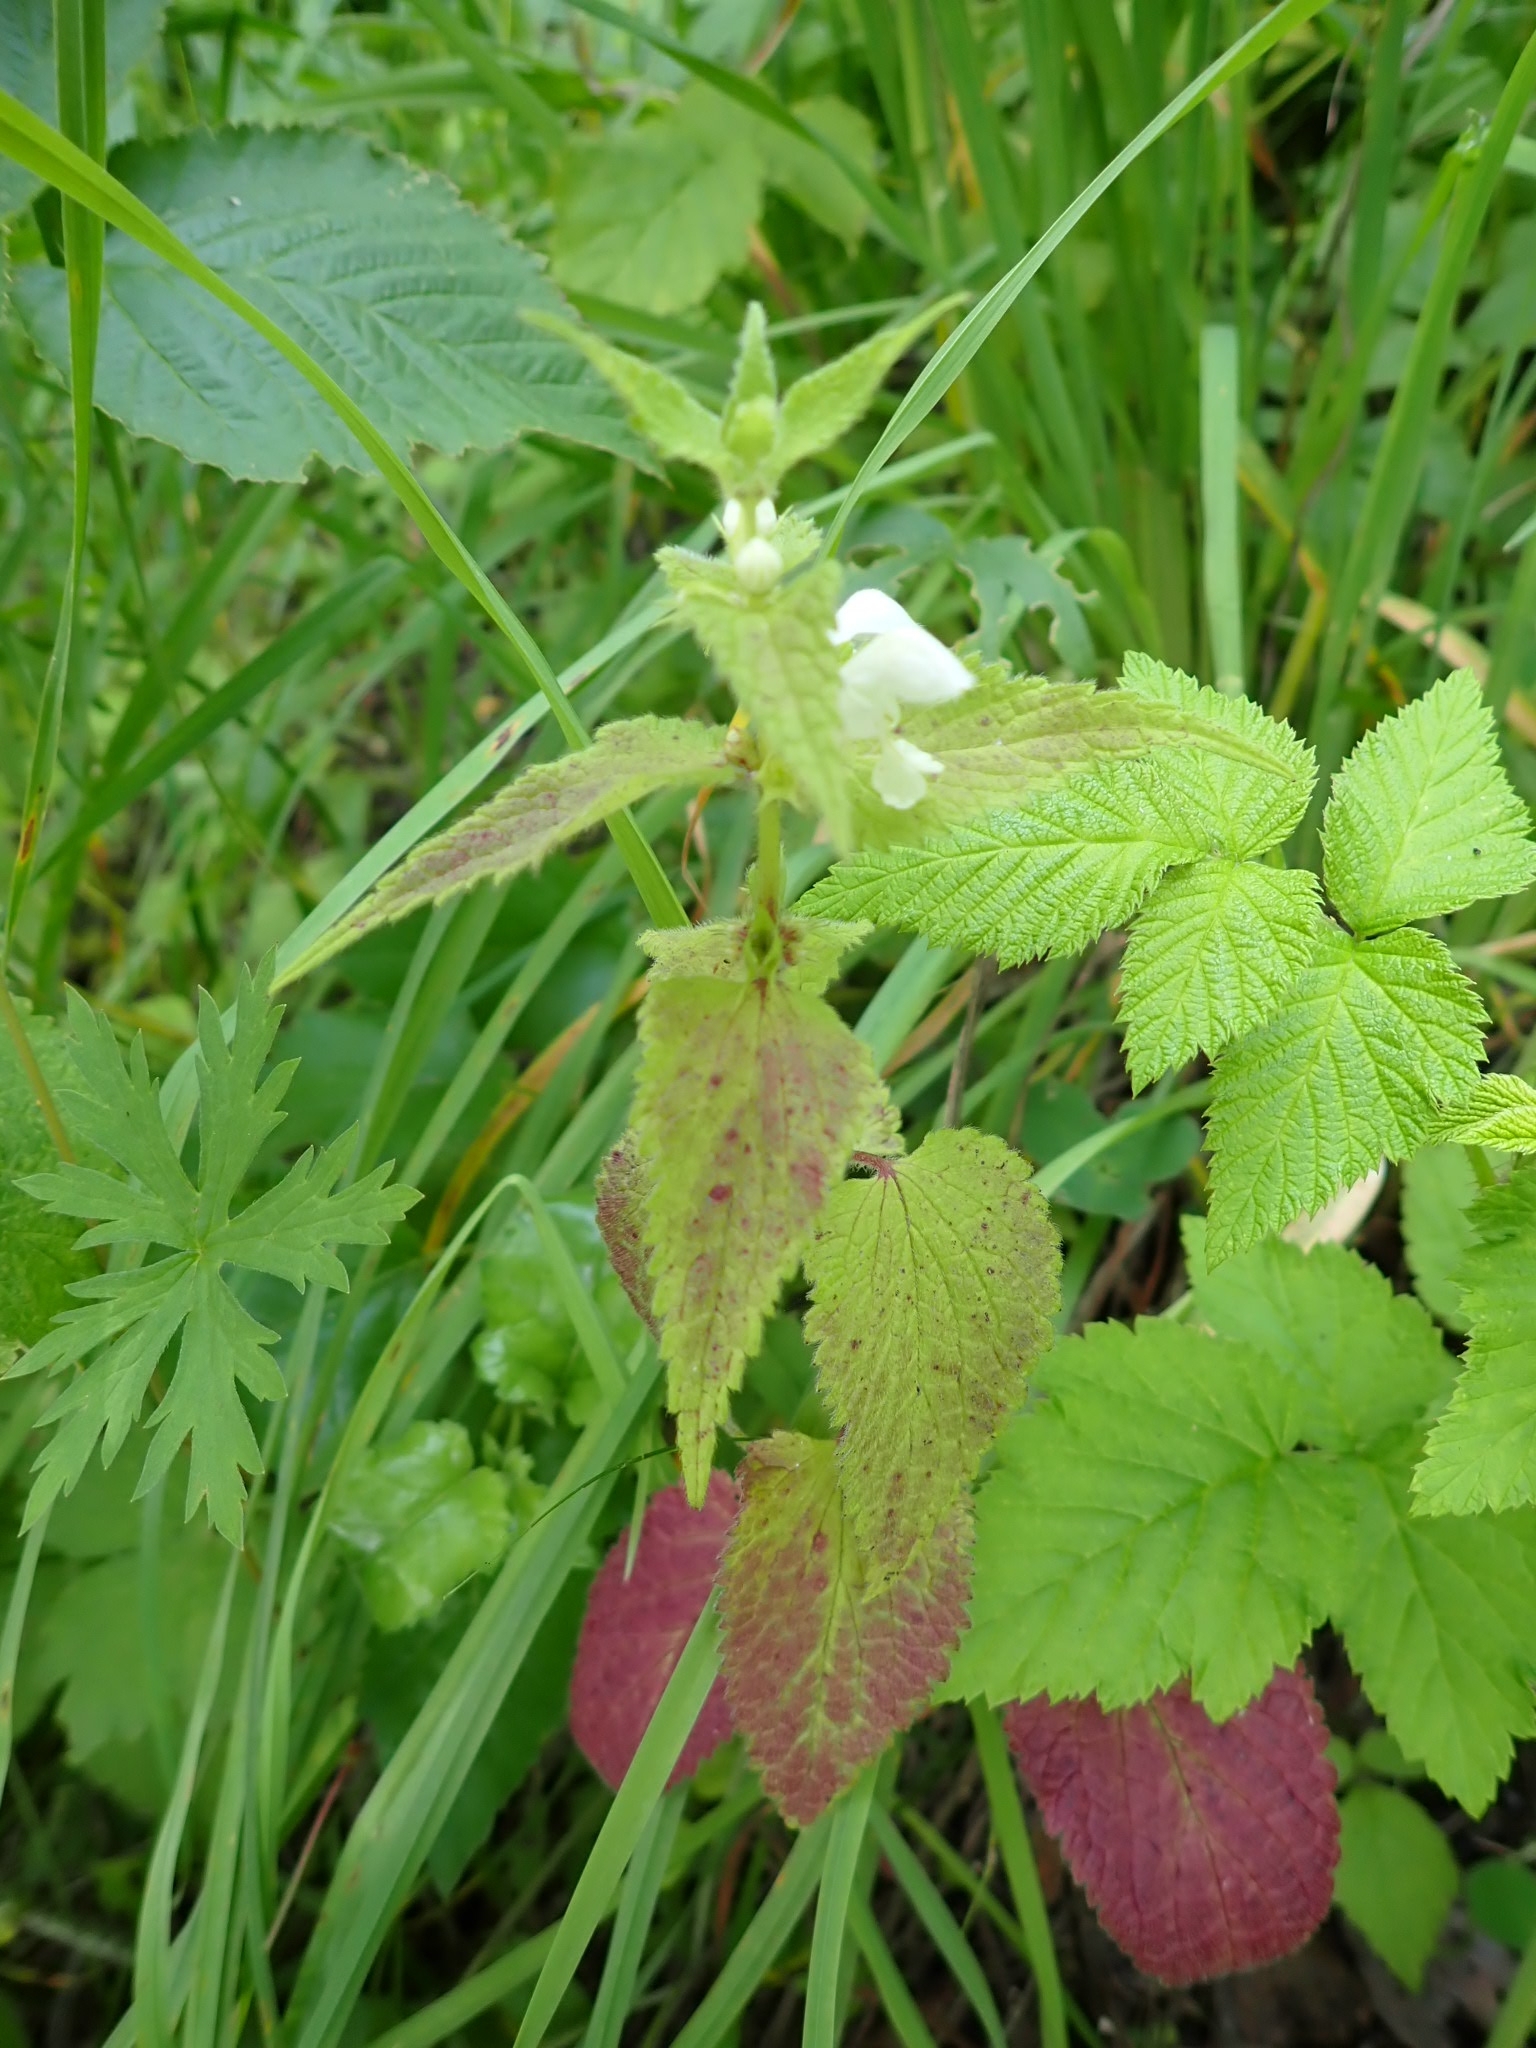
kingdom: Plantae
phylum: Tracheophyta
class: Magnoliopsida
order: Lamiales
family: Lamiaceae
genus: Lamium
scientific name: Lamium album
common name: White dead-nettle
